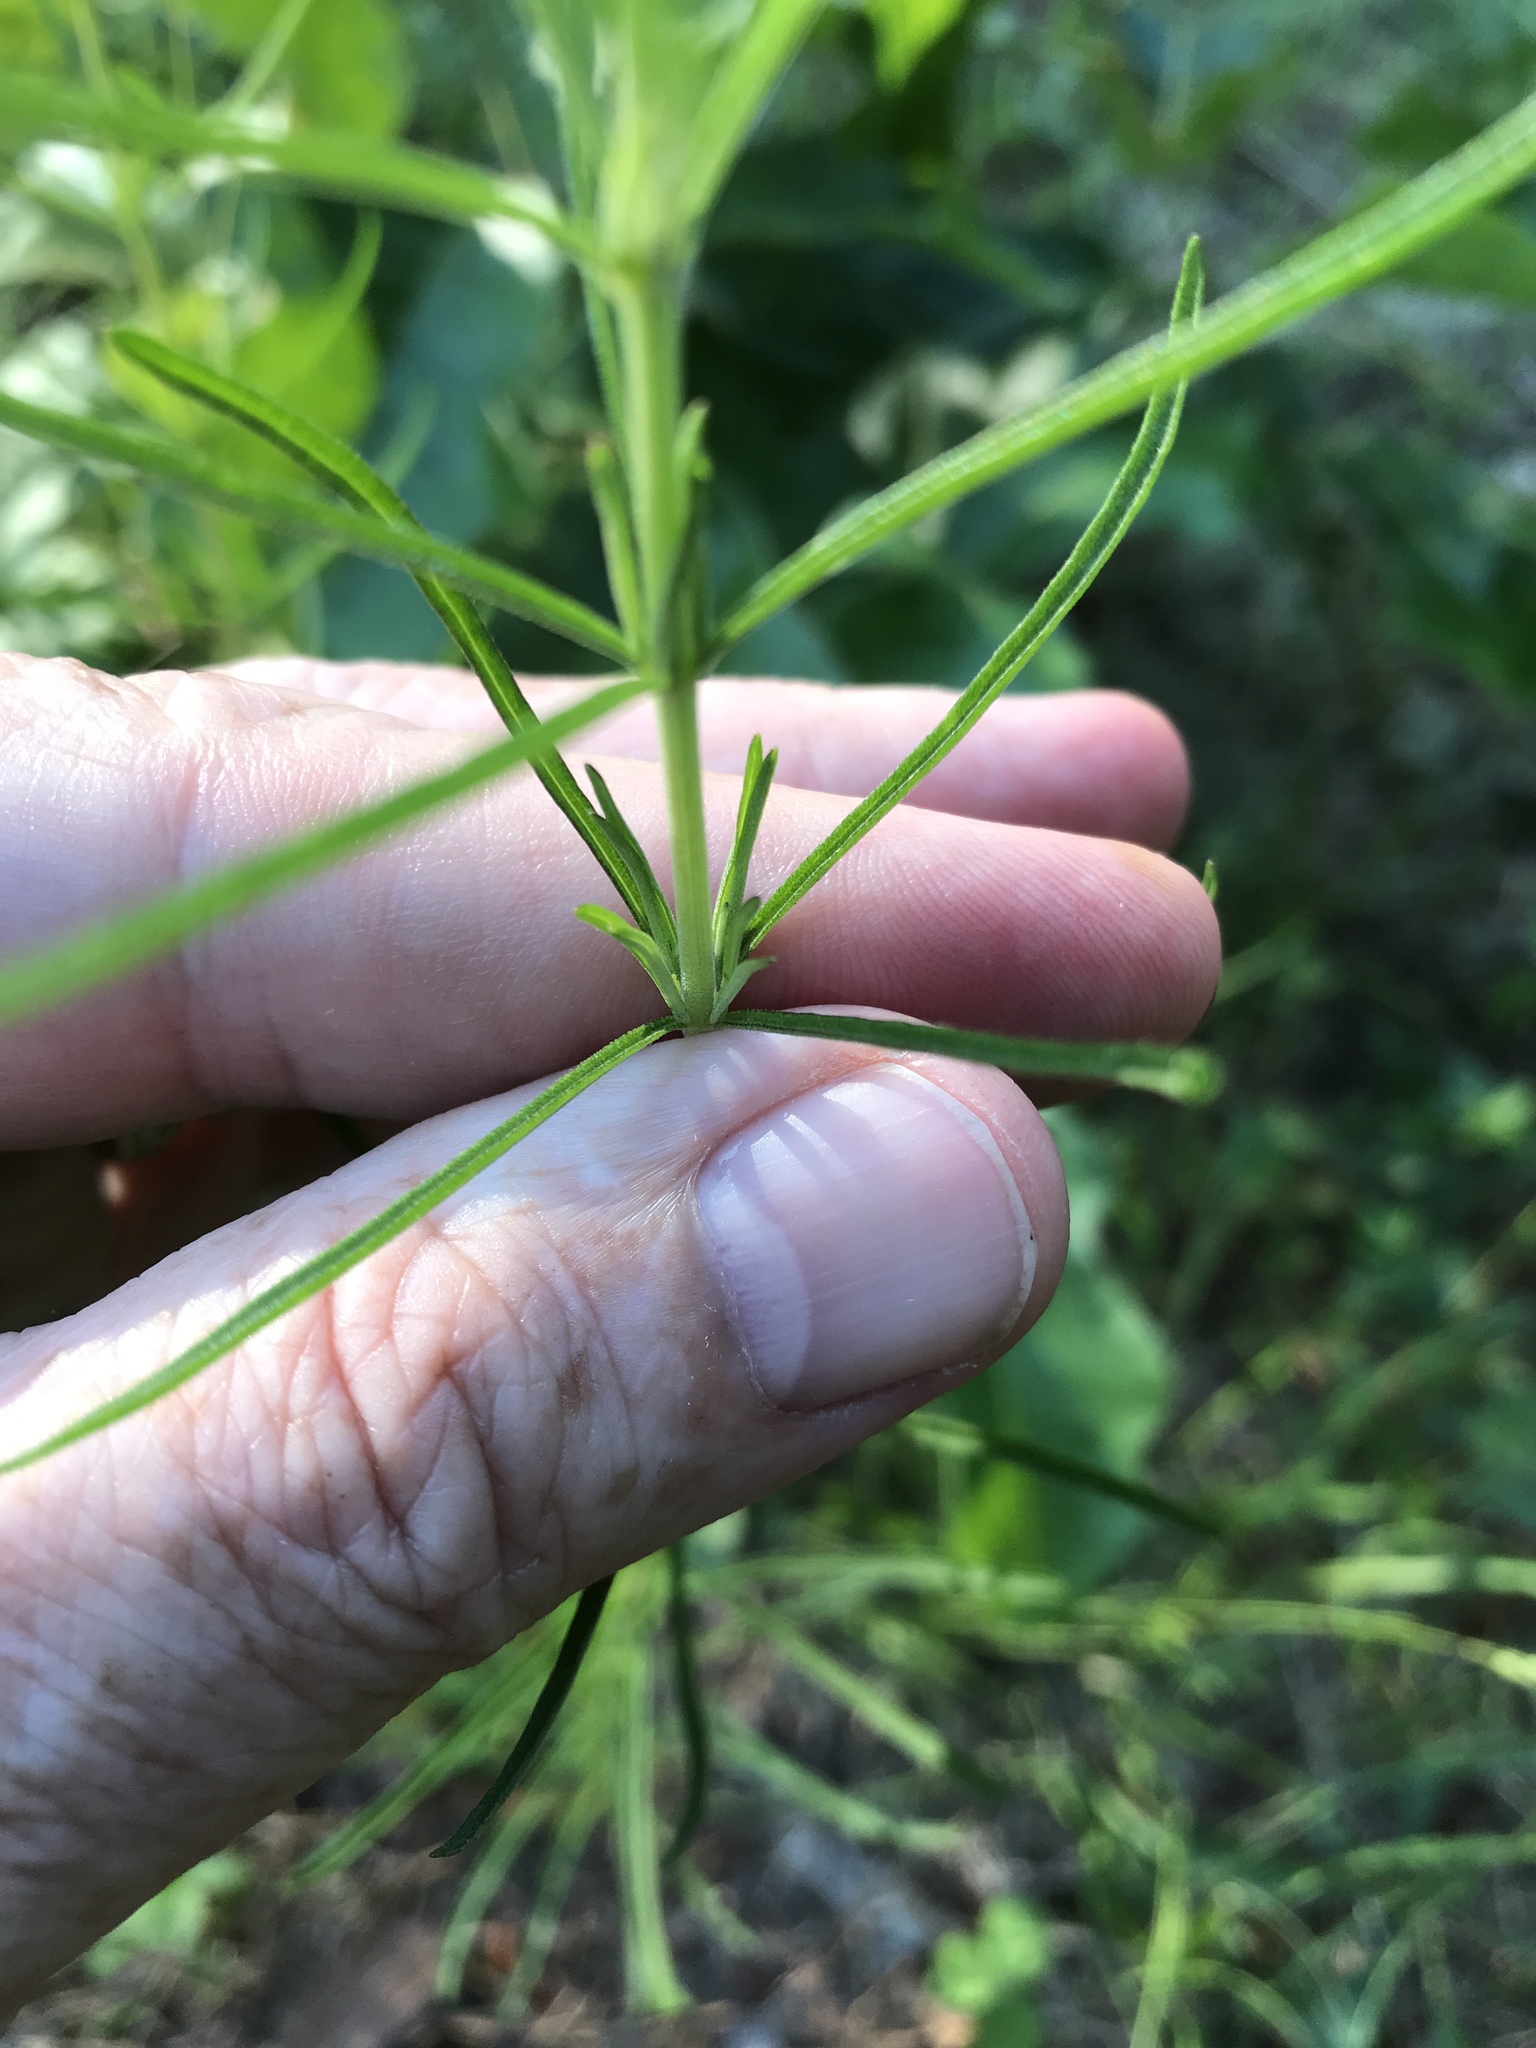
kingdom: Plantae
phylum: Tracheophyta
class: Magnoliopsida
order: Asterales
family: Asteraceae
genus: Eupatorium
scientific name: Eupatorium hyssopifolium
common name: Hyssop-leaf thoroughwort
